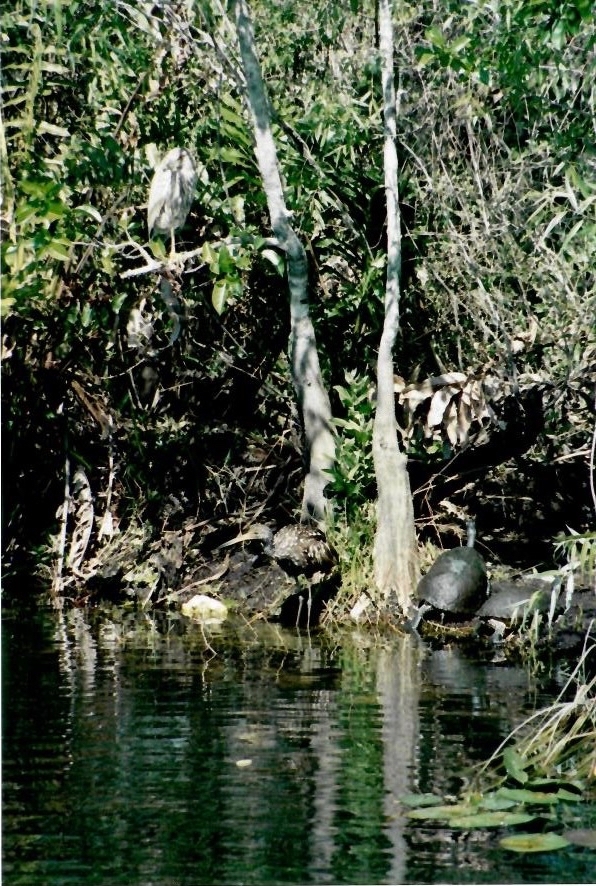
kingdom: Animalia
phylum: Chordata
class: Aves
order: Gruiformes
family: Aramidae
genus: Aramus
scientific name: Aramus guarauna
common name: Limpkin
